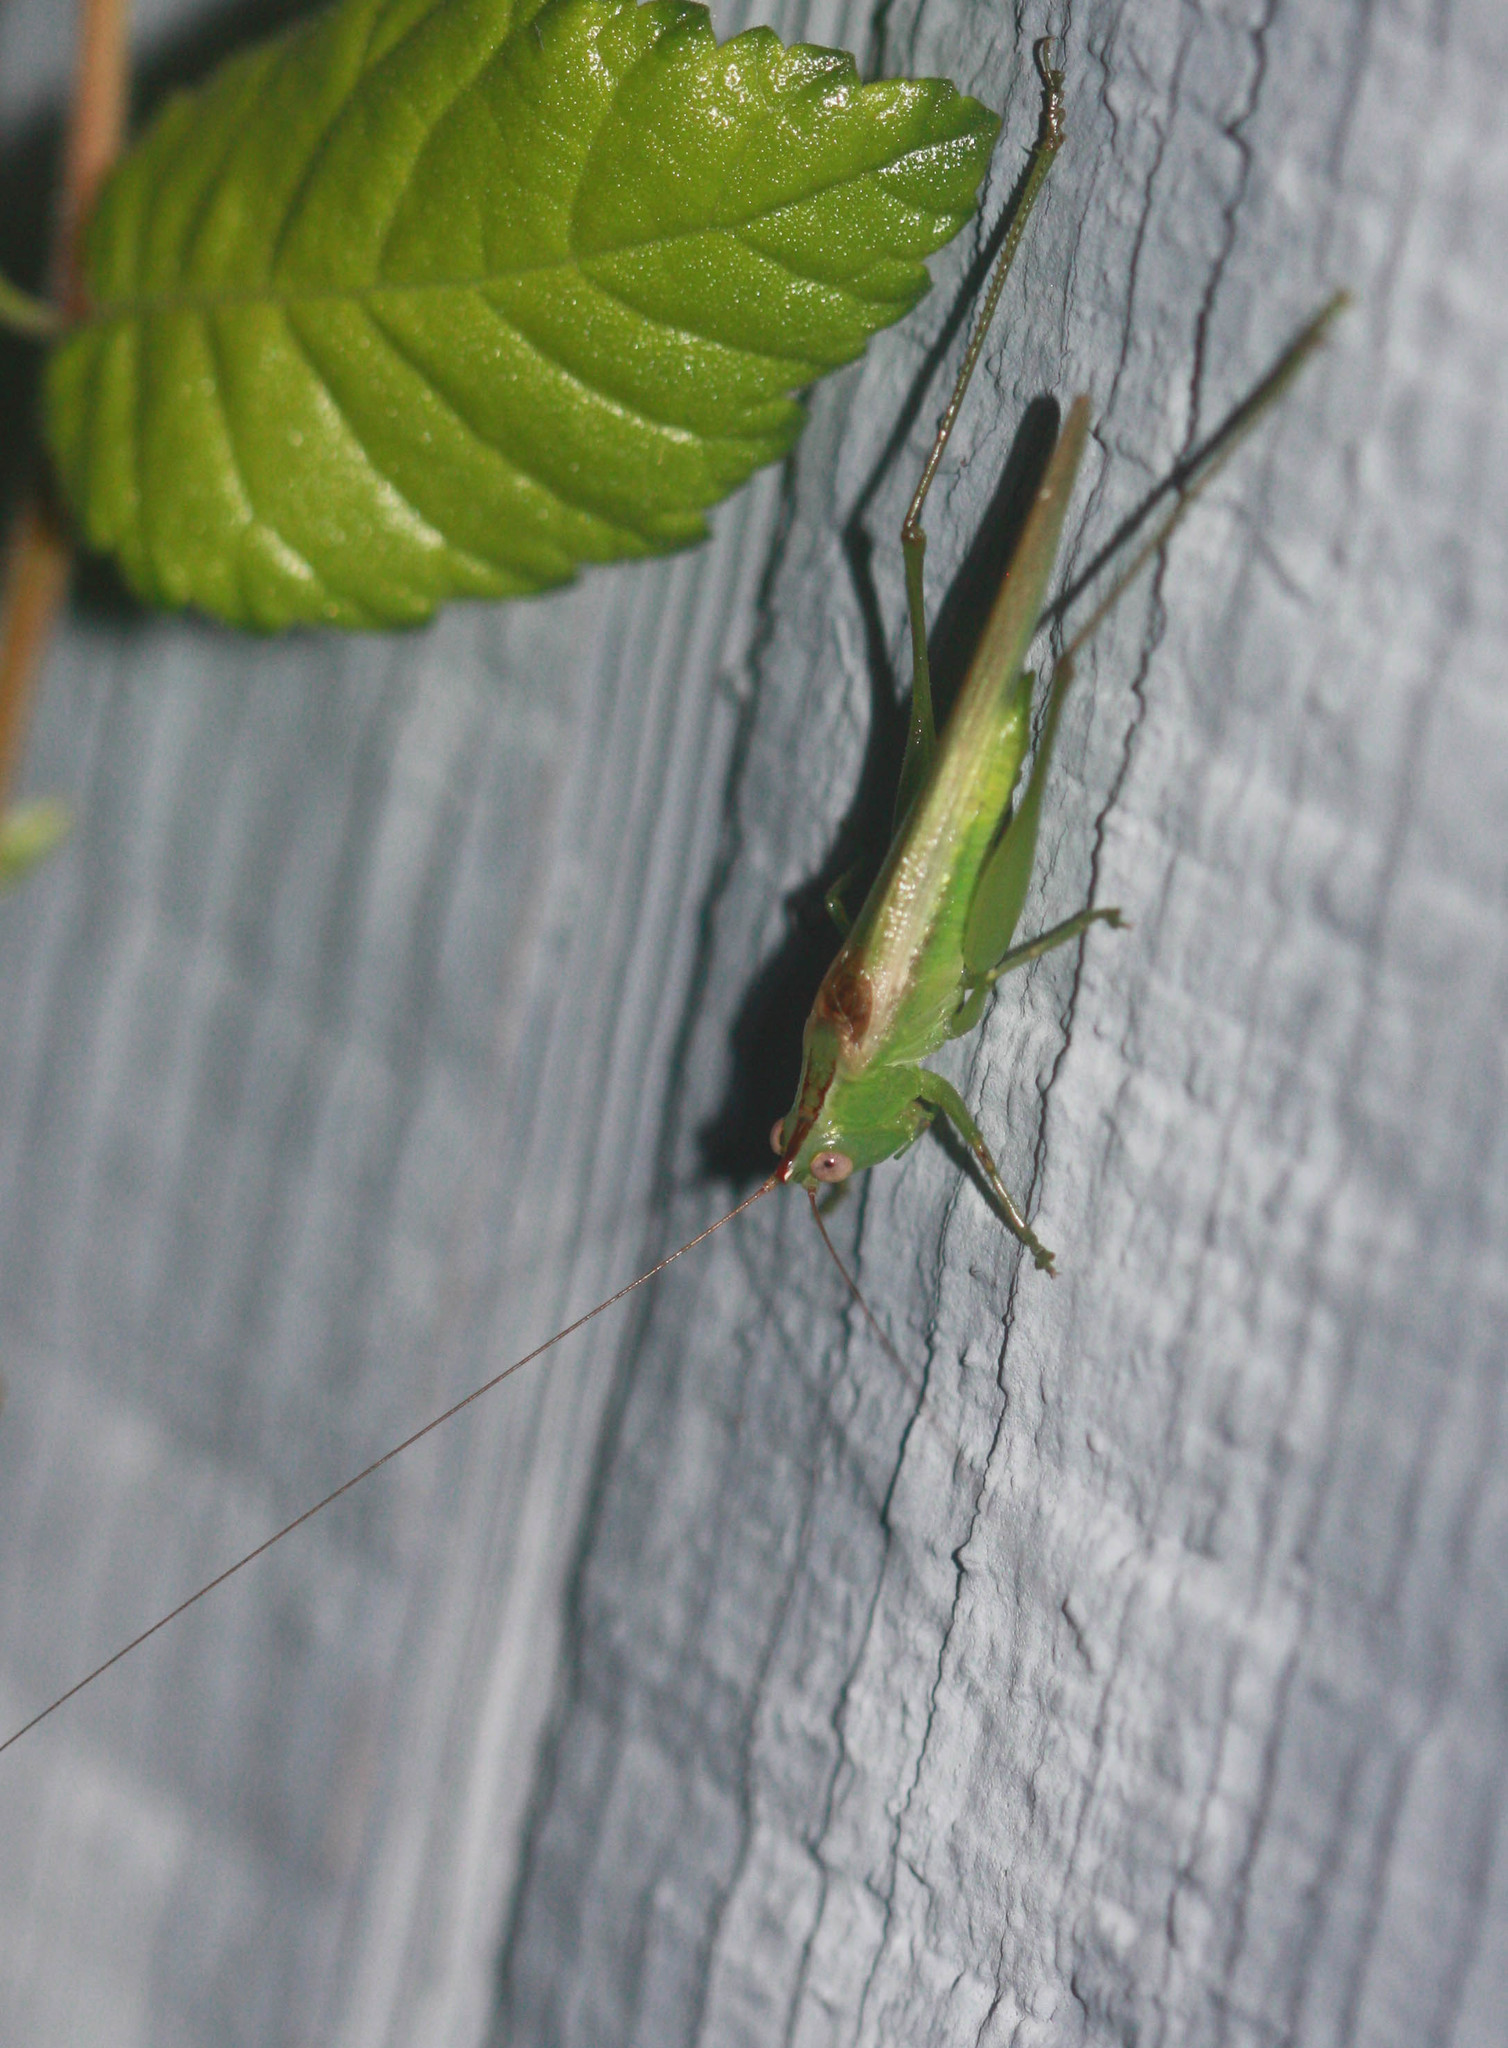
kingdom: Animalia
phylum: Arthropoda
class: Insecta
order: Orthoptera
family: Tettigoniidae
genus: Conocephalus
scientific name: Conocephalus fasciatus
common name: Slender meadow katydid
